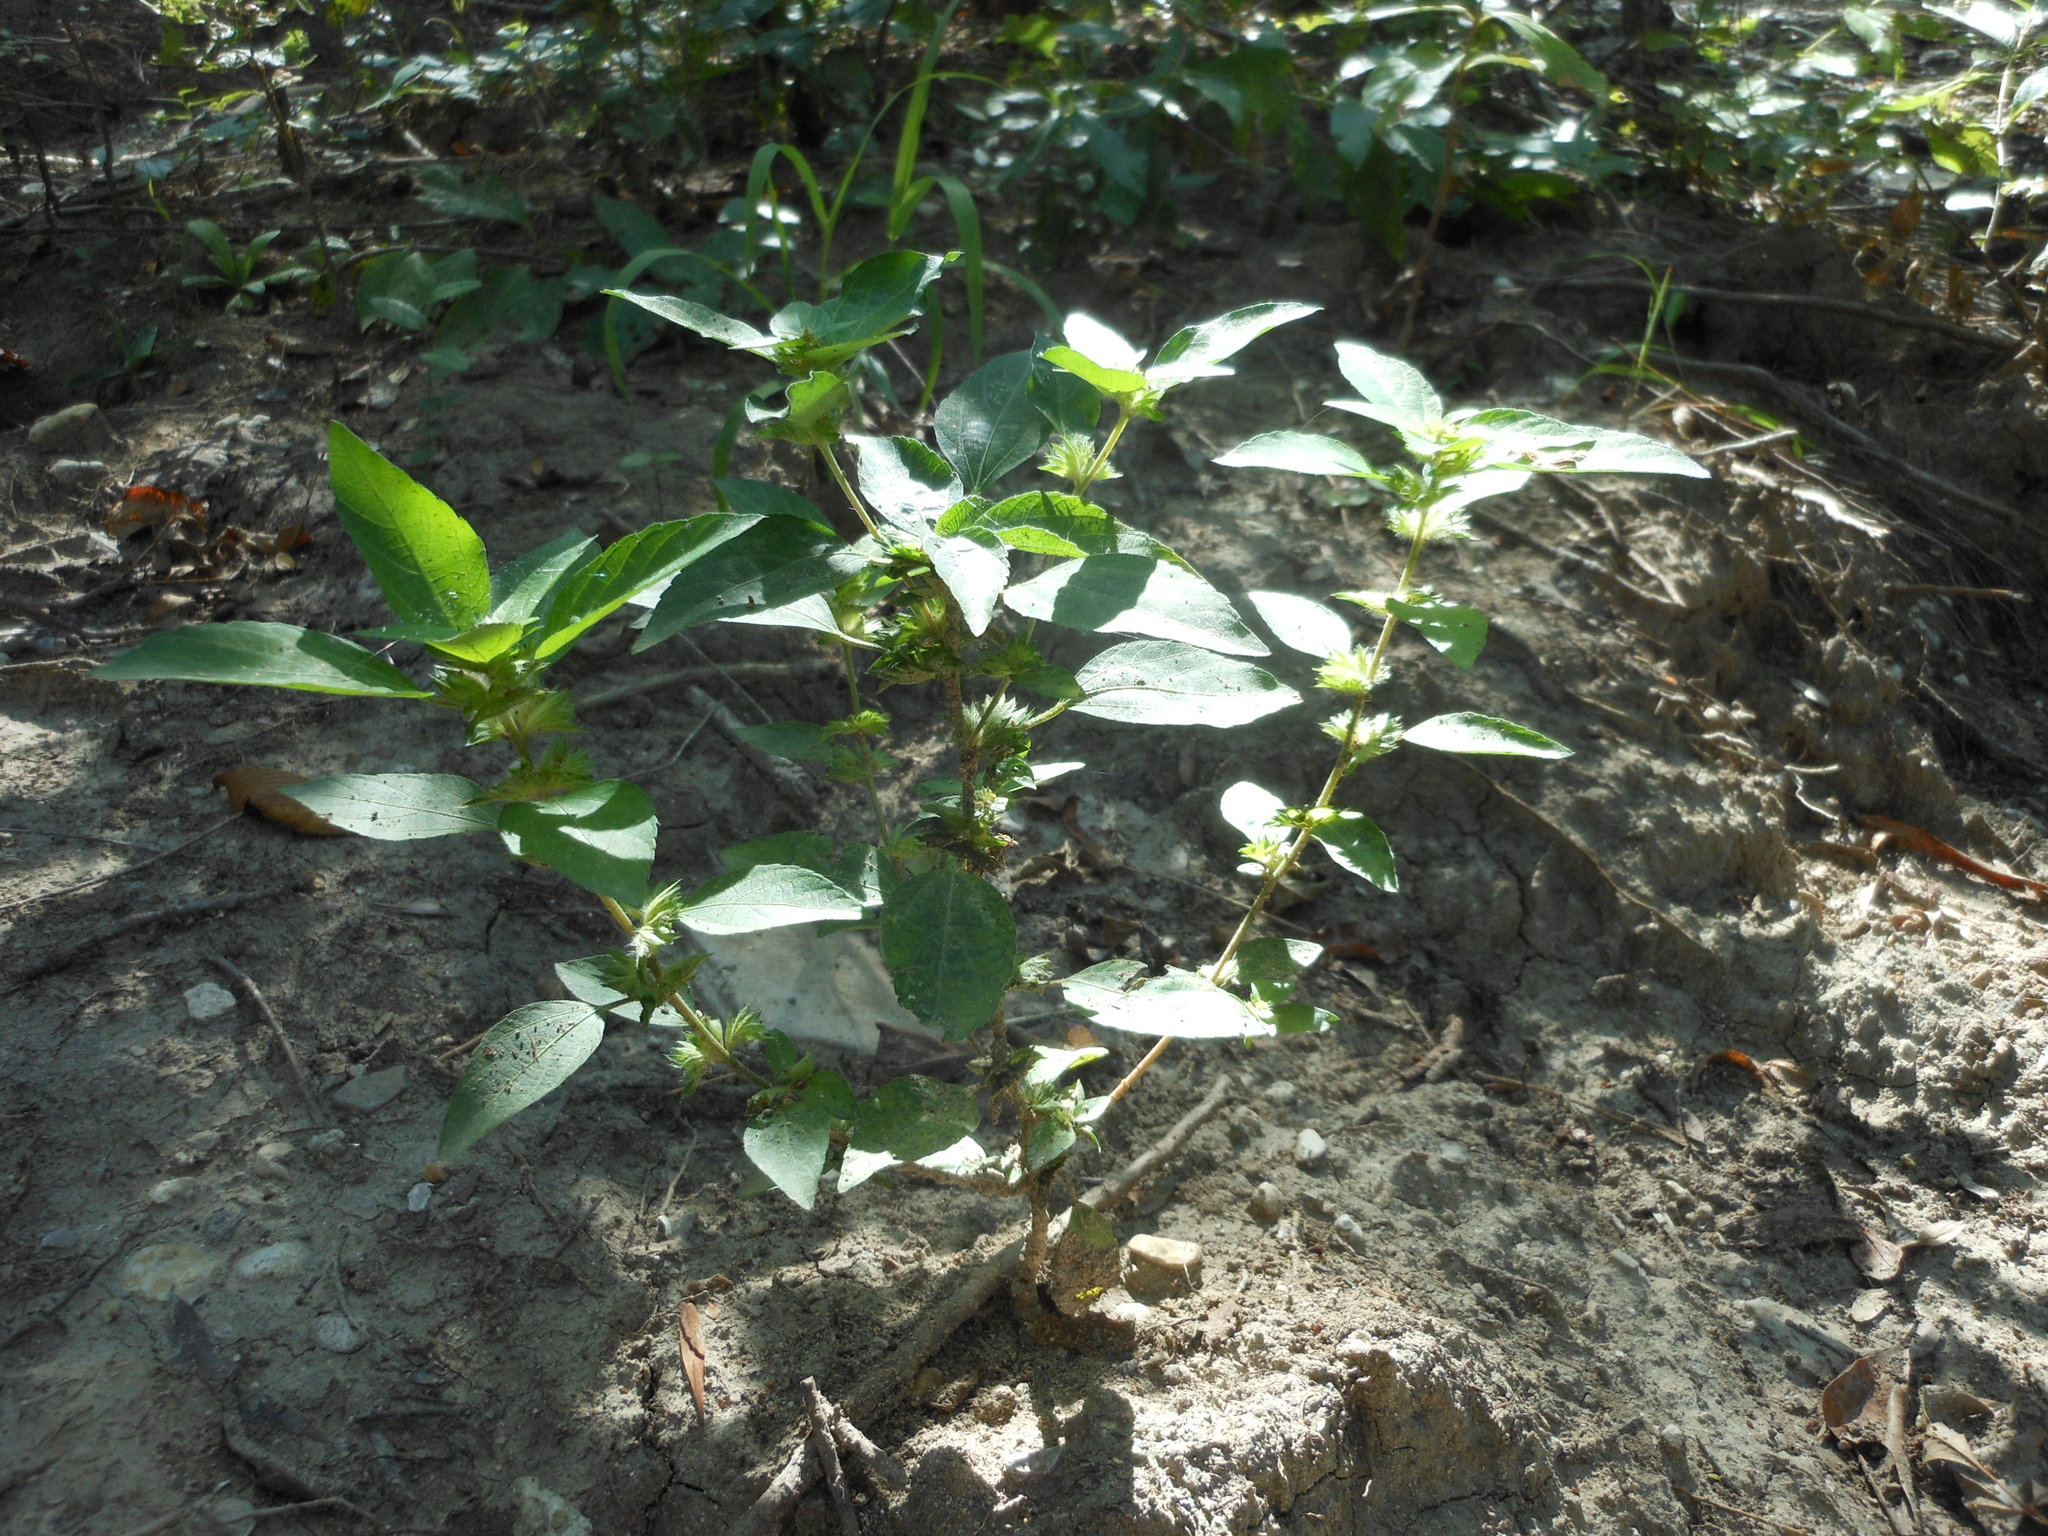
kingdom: Plantae
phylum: Tracheophyta
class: Magnoliopsida
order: Malpighiales
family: Euphorbiaceae
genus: Acalypha
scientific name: Acalypha virginica
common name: Virginia copperleaf
